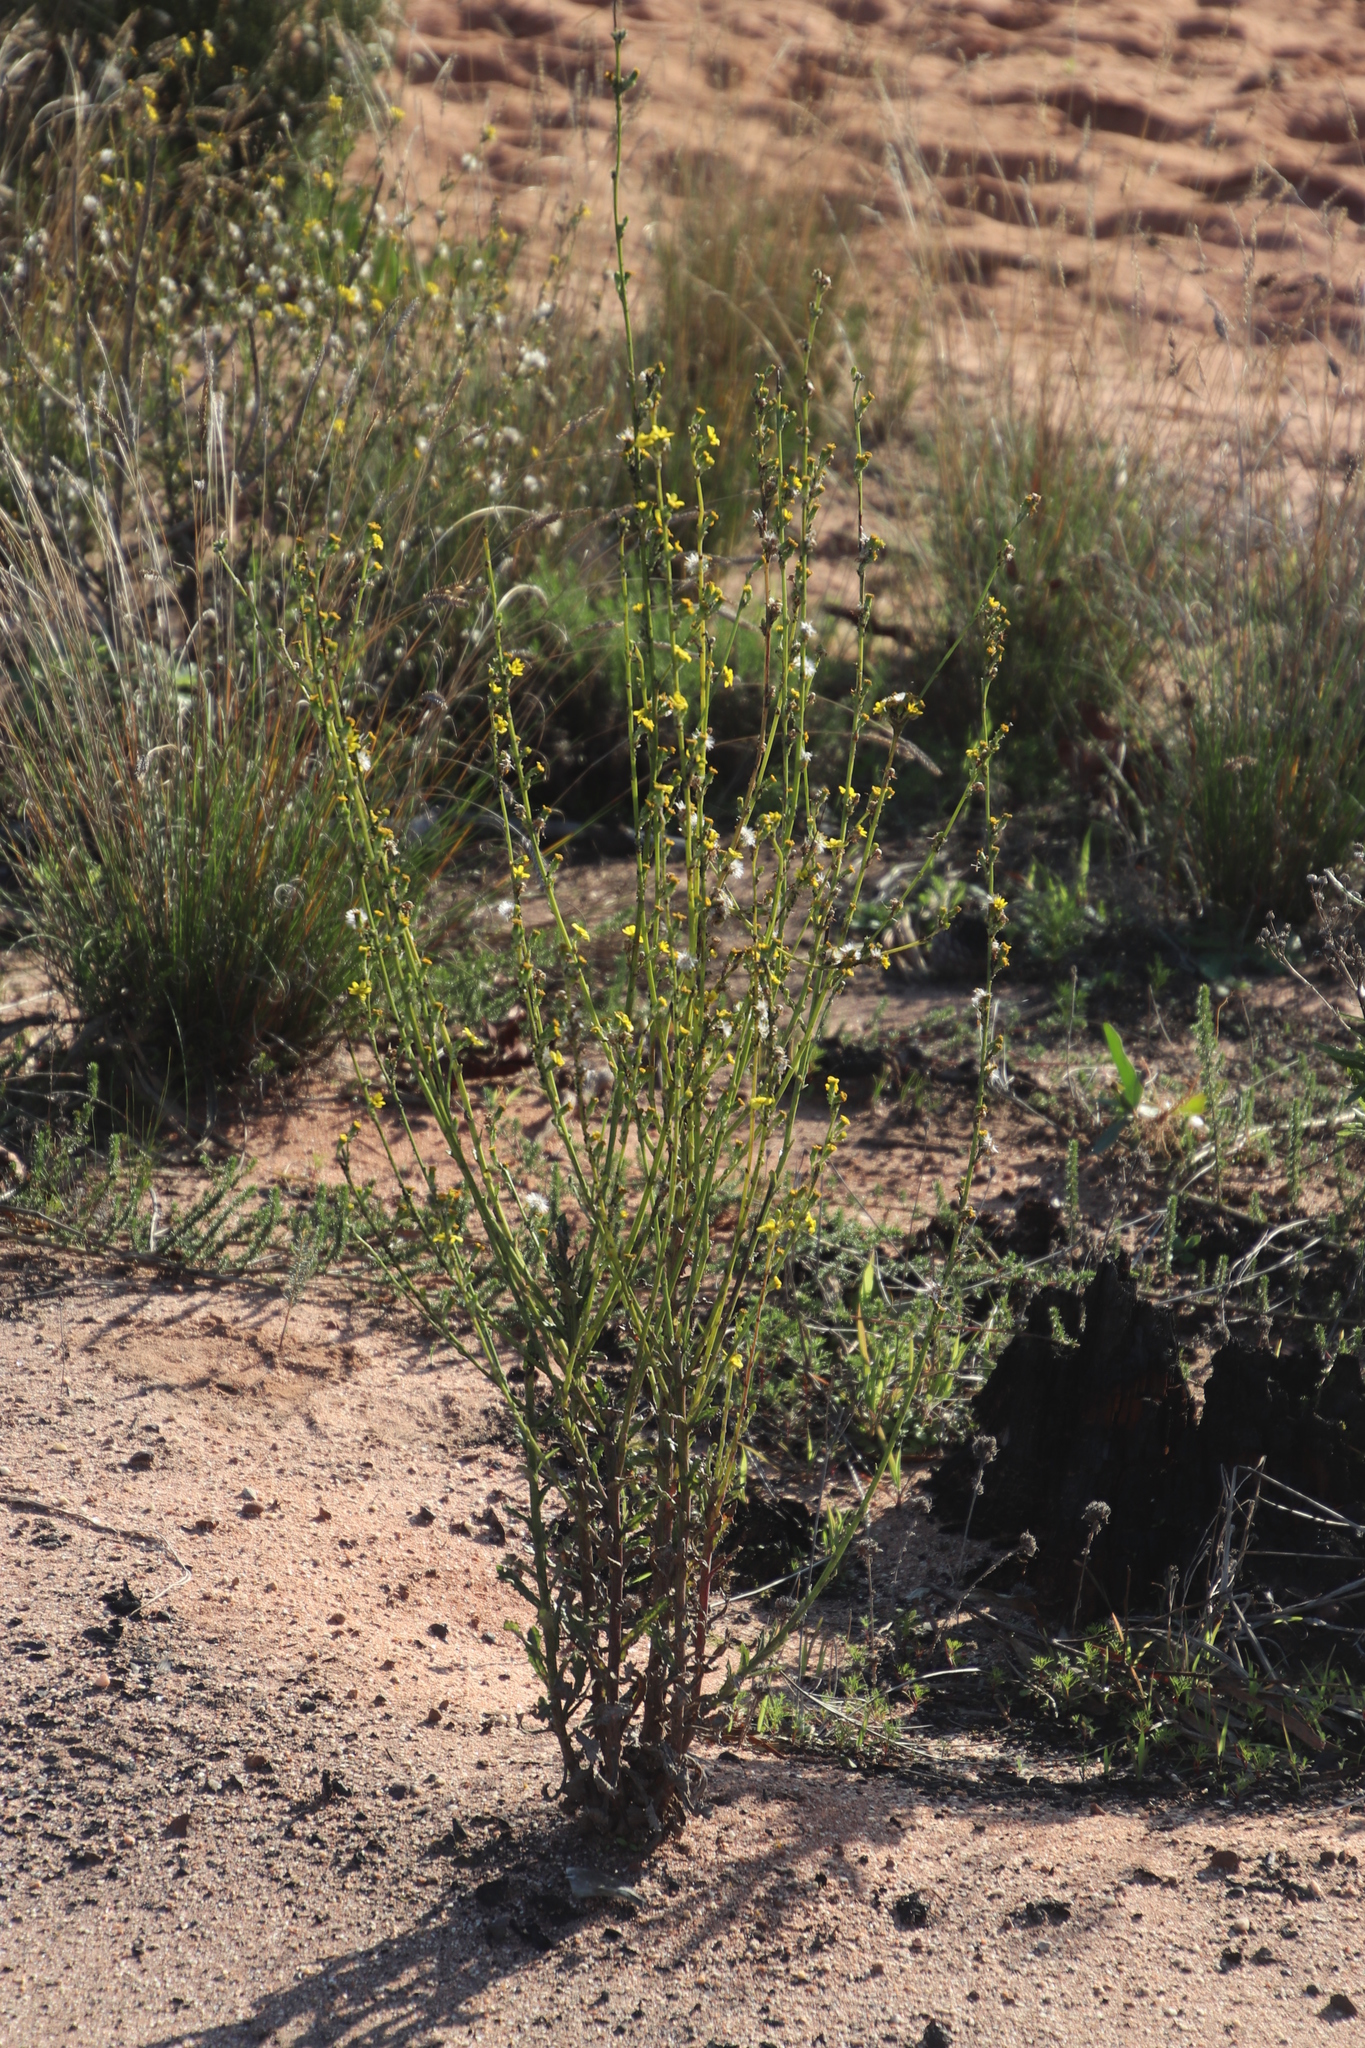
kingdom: Plantae
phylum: Tracheophyta
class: Magnoliopsida
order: Asterales
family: Asteraceae
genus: Senecio
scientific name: Senecio pubigerus
